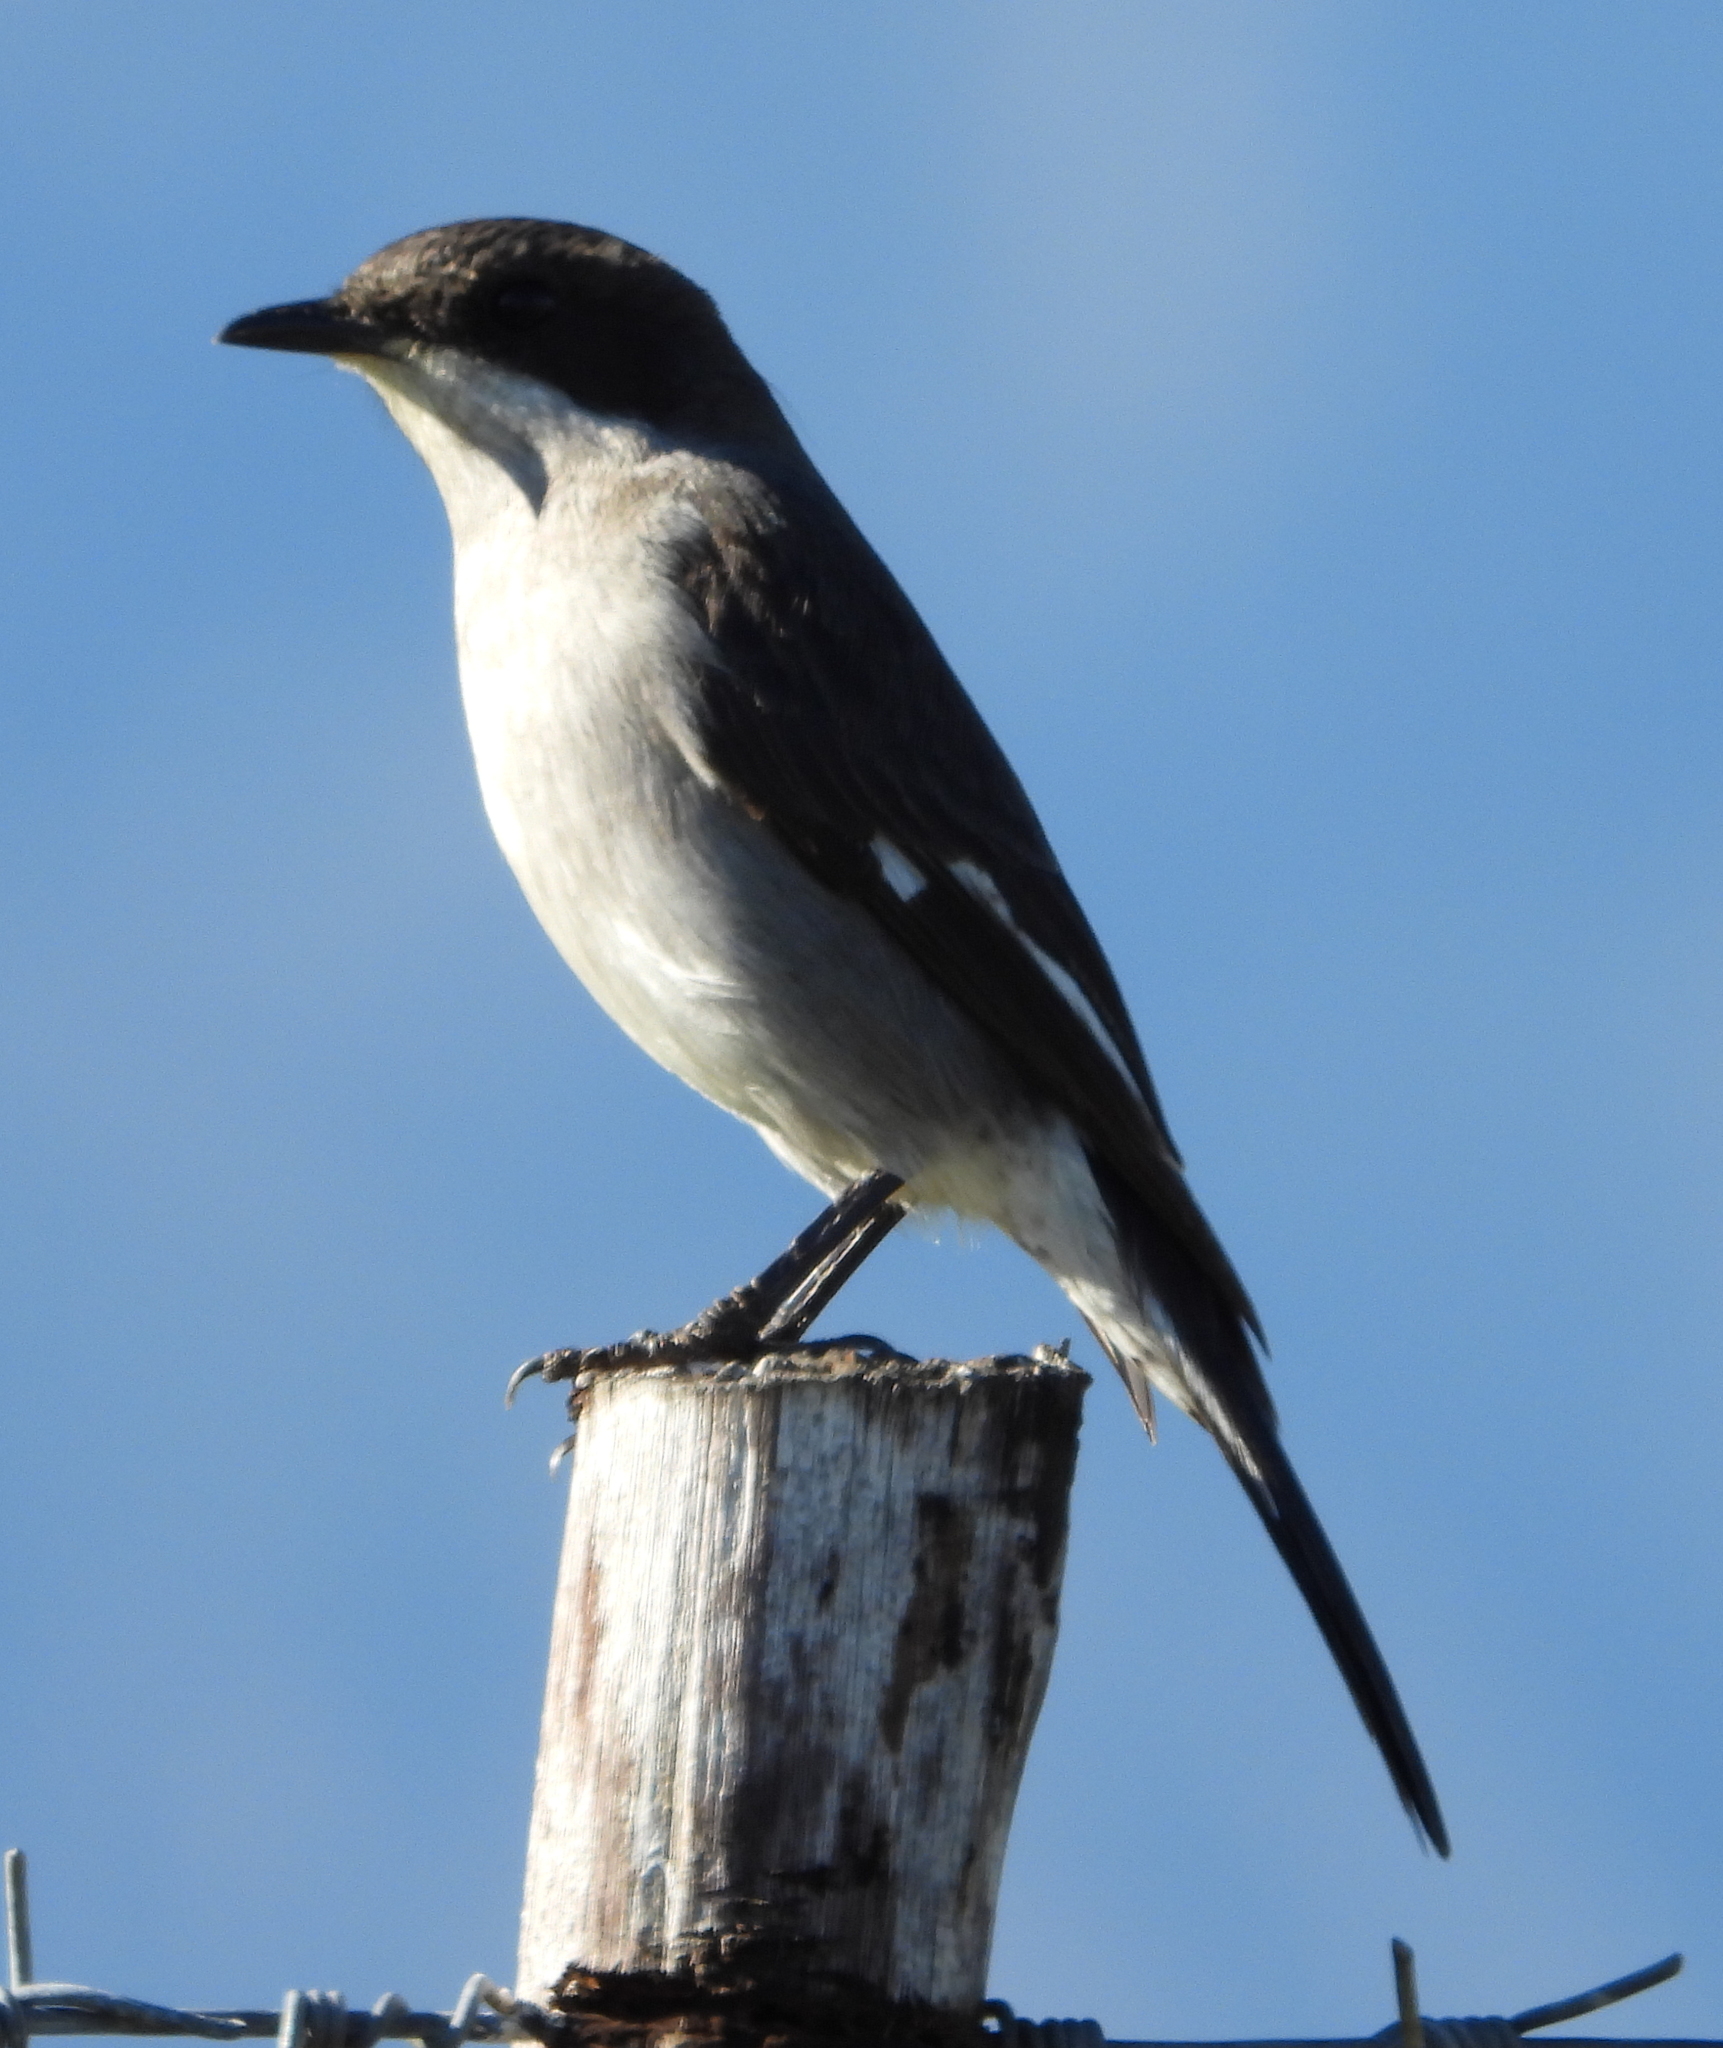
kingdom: Animalia
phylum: Chordata
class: Aves
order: Passeriformes
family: Muscicapidae
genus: Sigelus
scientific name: Sigelus silens
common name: Fiscal flycatcher
